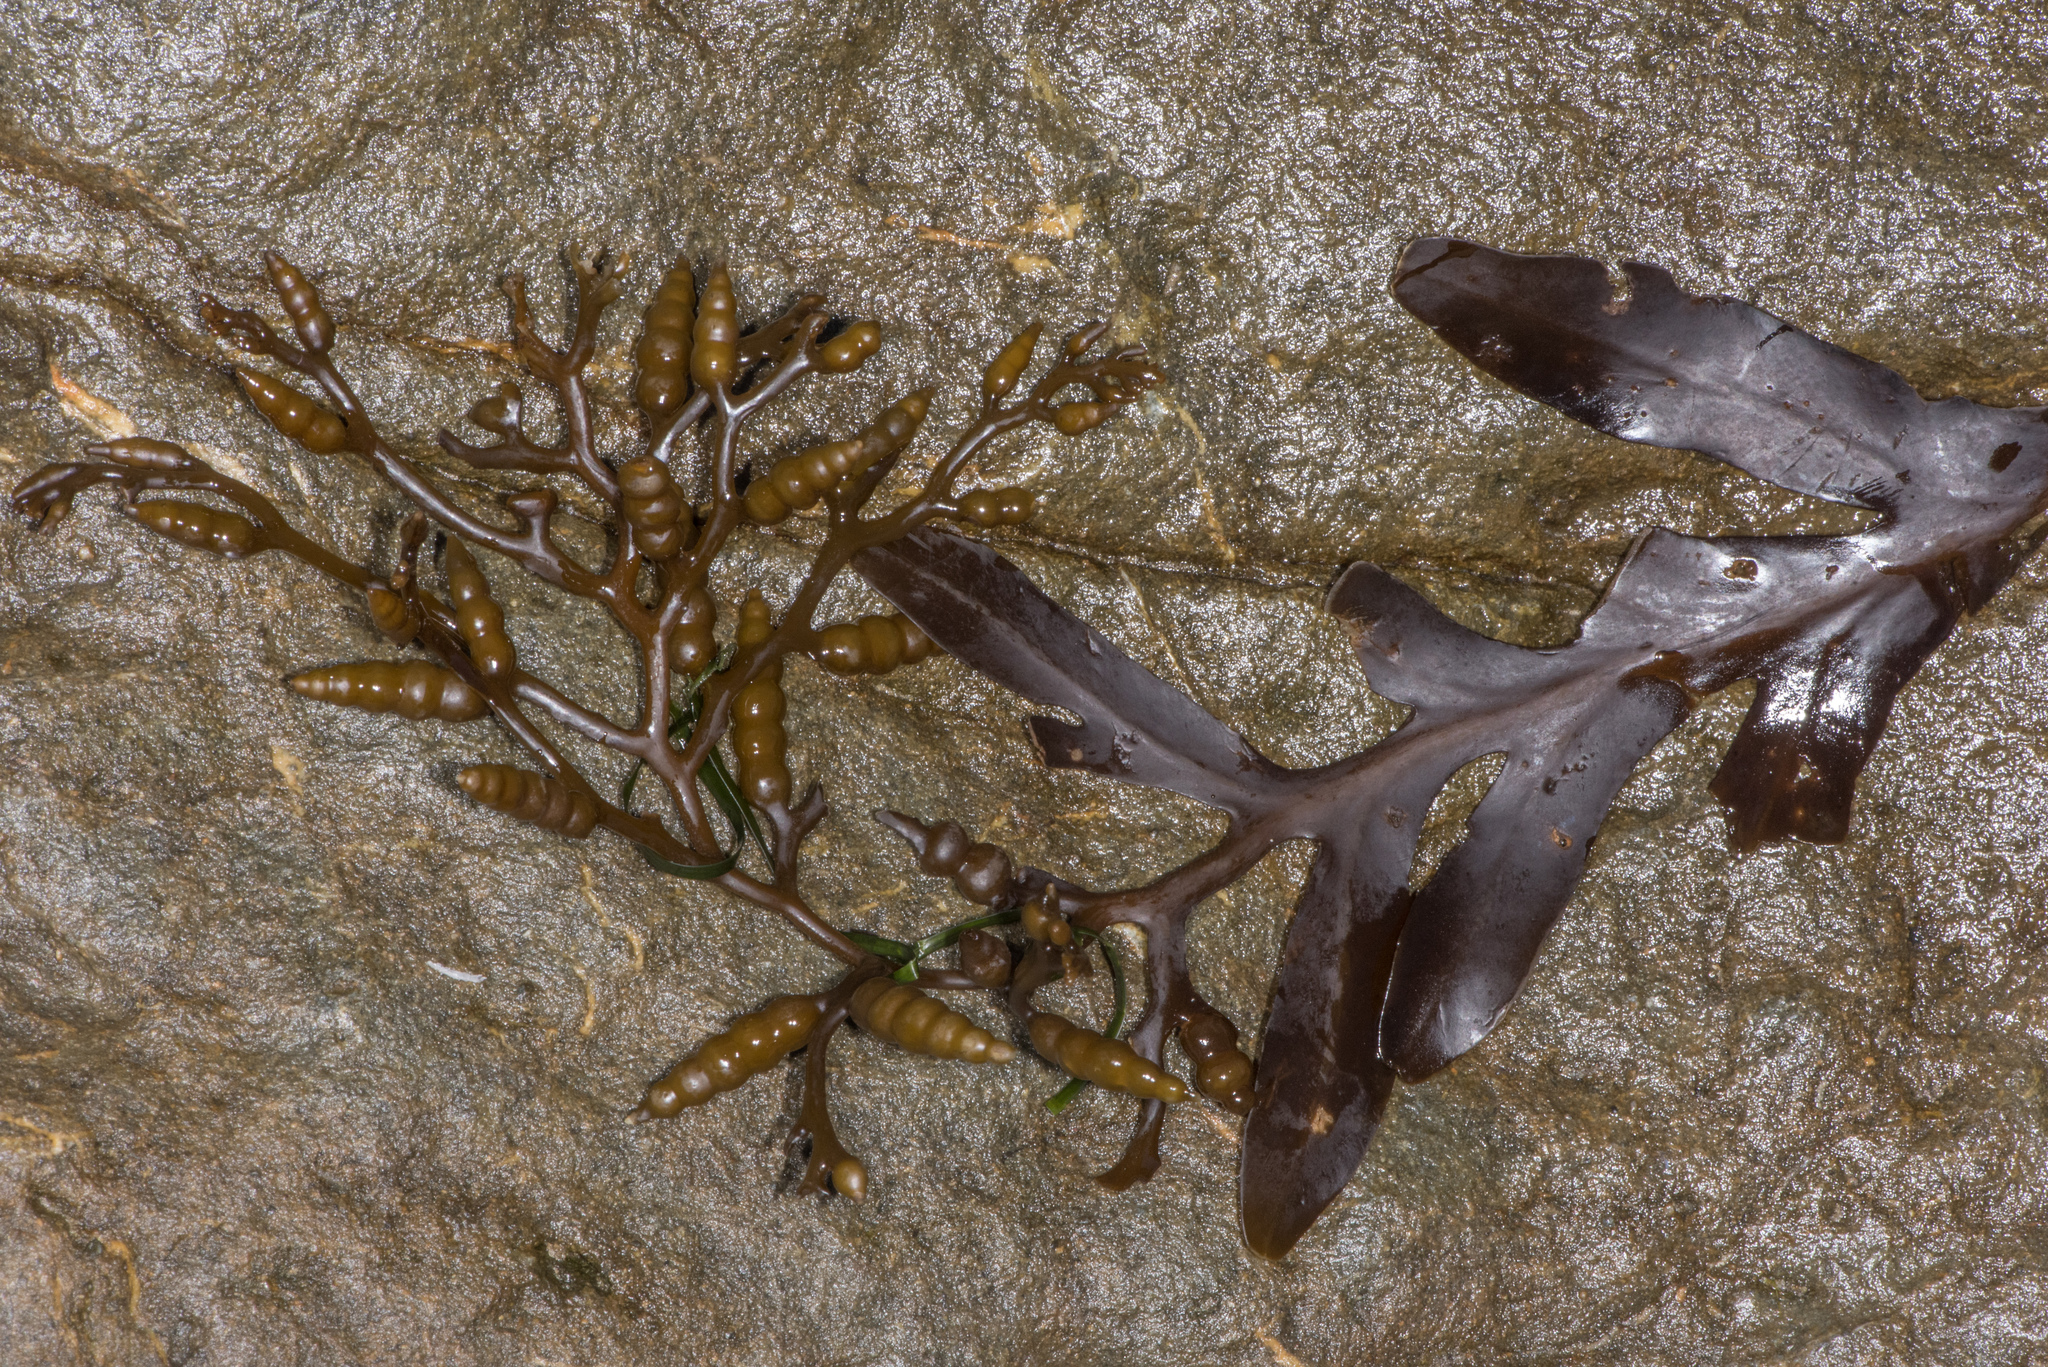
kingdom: Chromista
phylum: Ochrophyta
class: Phaeophyceae
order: Fucales
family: Sargassaceae
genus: Stephanocystis
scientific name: Stephanocystis
